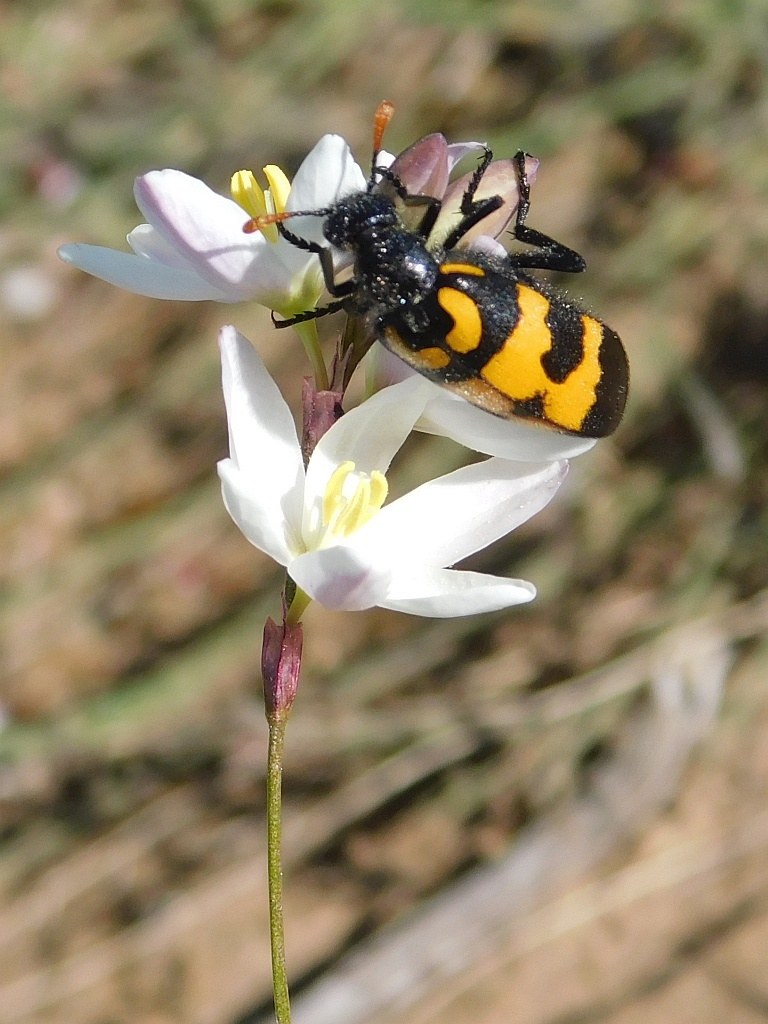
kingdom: Animalia
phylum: Arthropoda
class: Insecta
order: Coleoptera
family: Meloidae
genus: Meloe
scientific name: Meloe lunata
